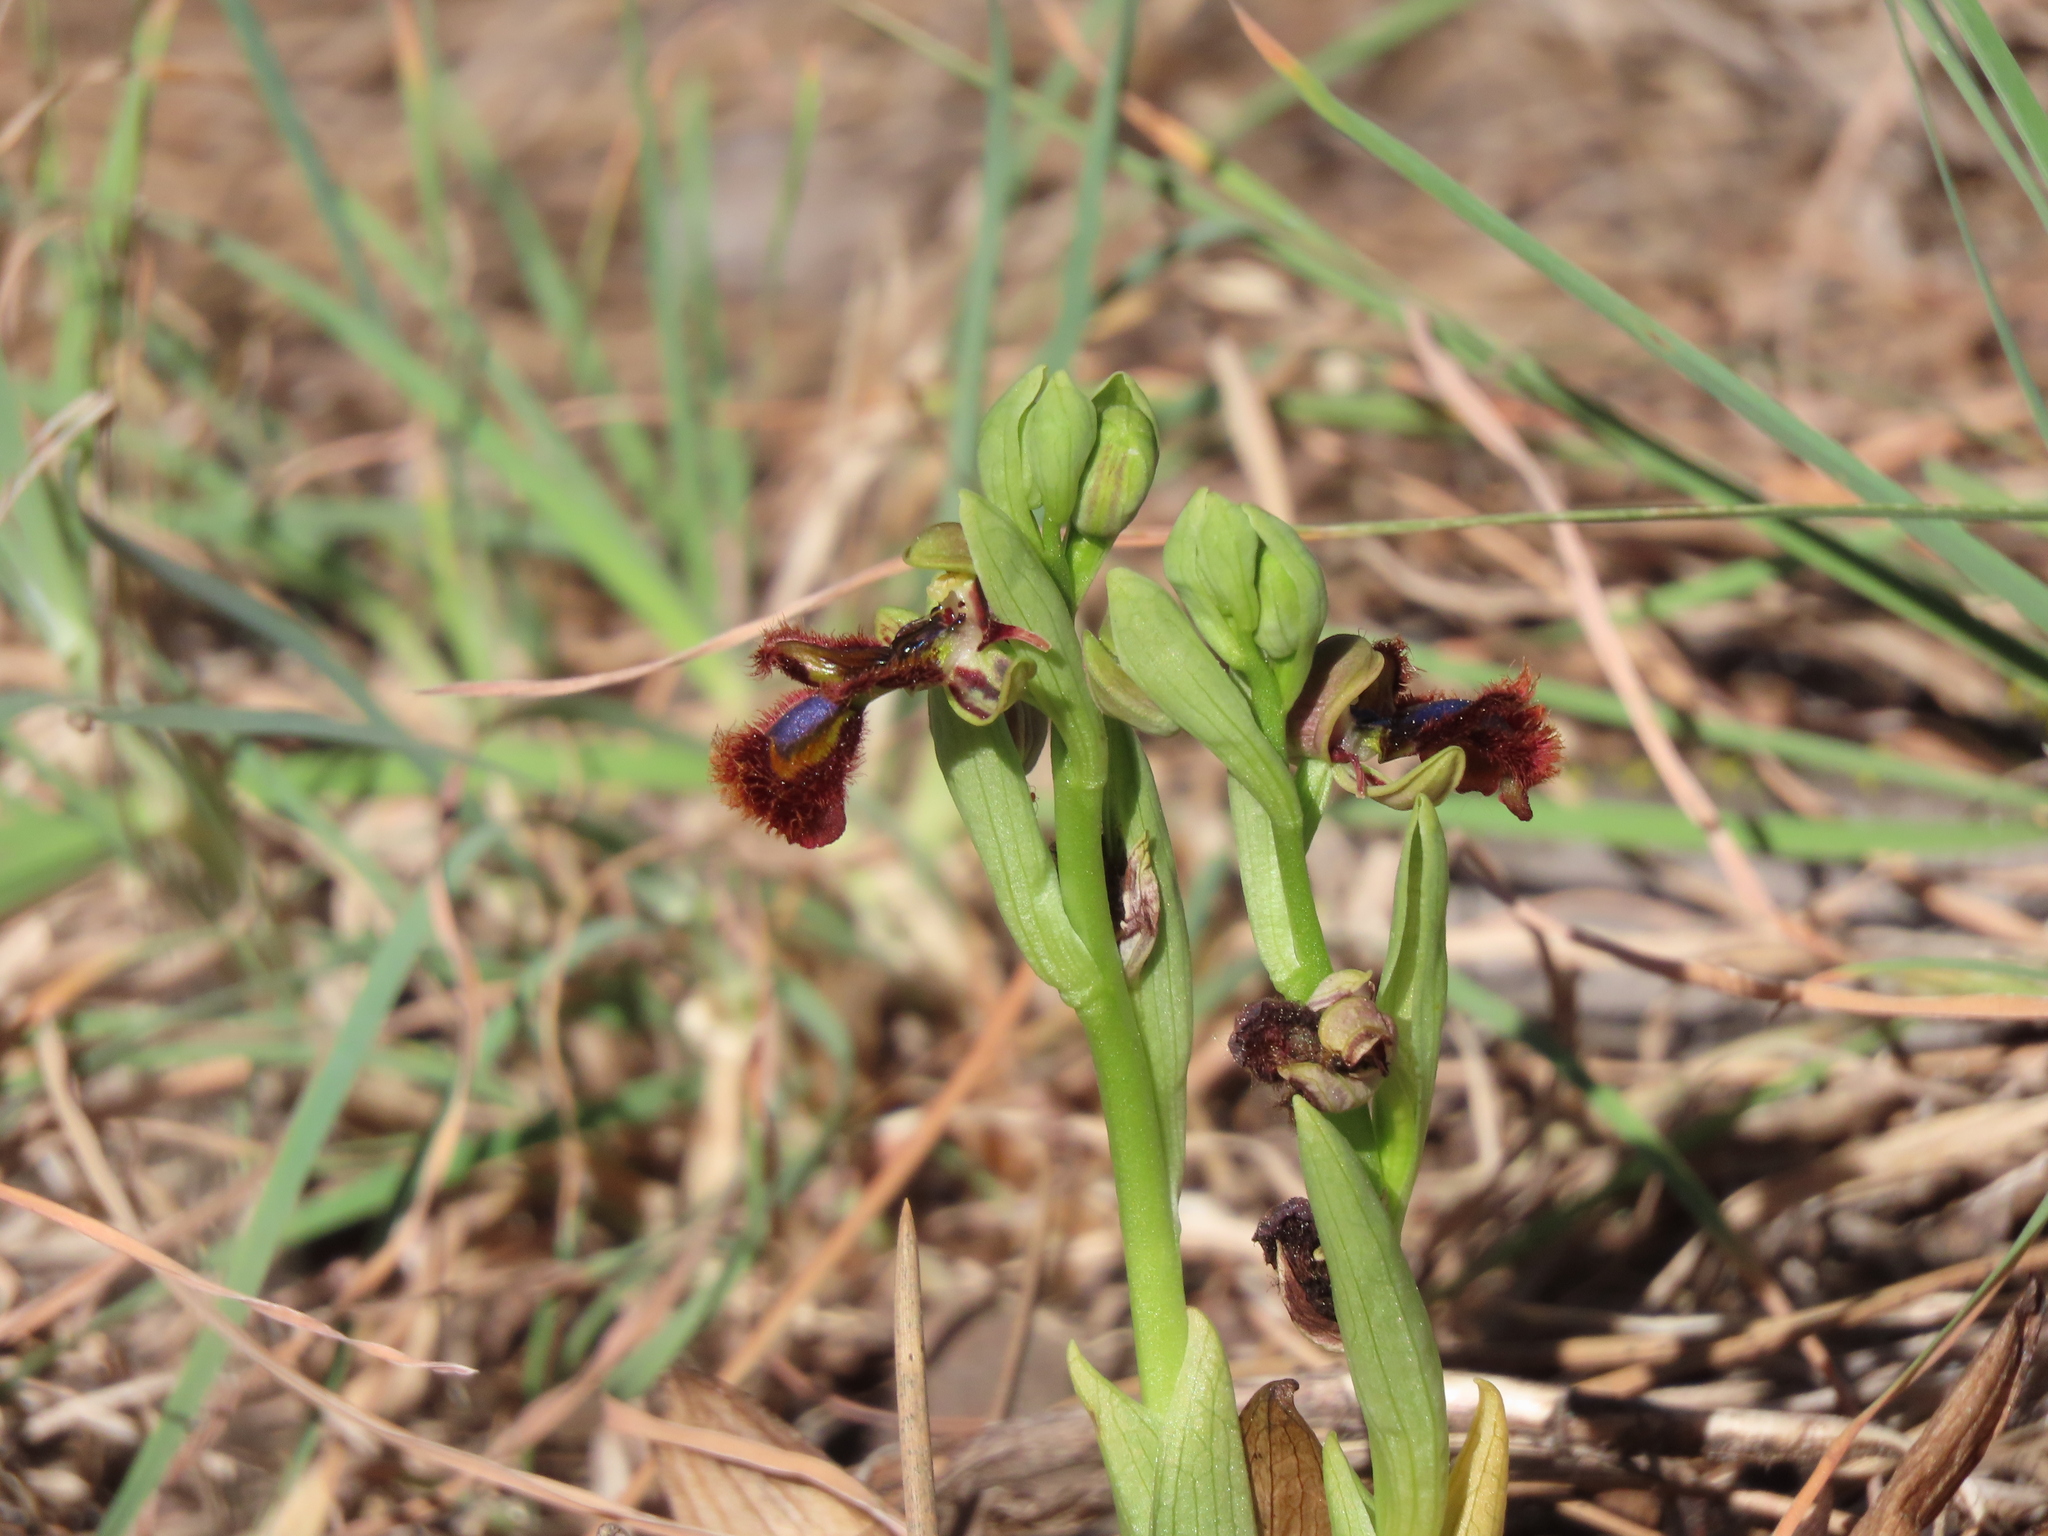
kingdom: Plantae
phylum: Tracheophyta
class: Liliopsida
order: Asparagales
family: Orchidaceae
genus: Ophrys
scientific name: Ophrys speculum
